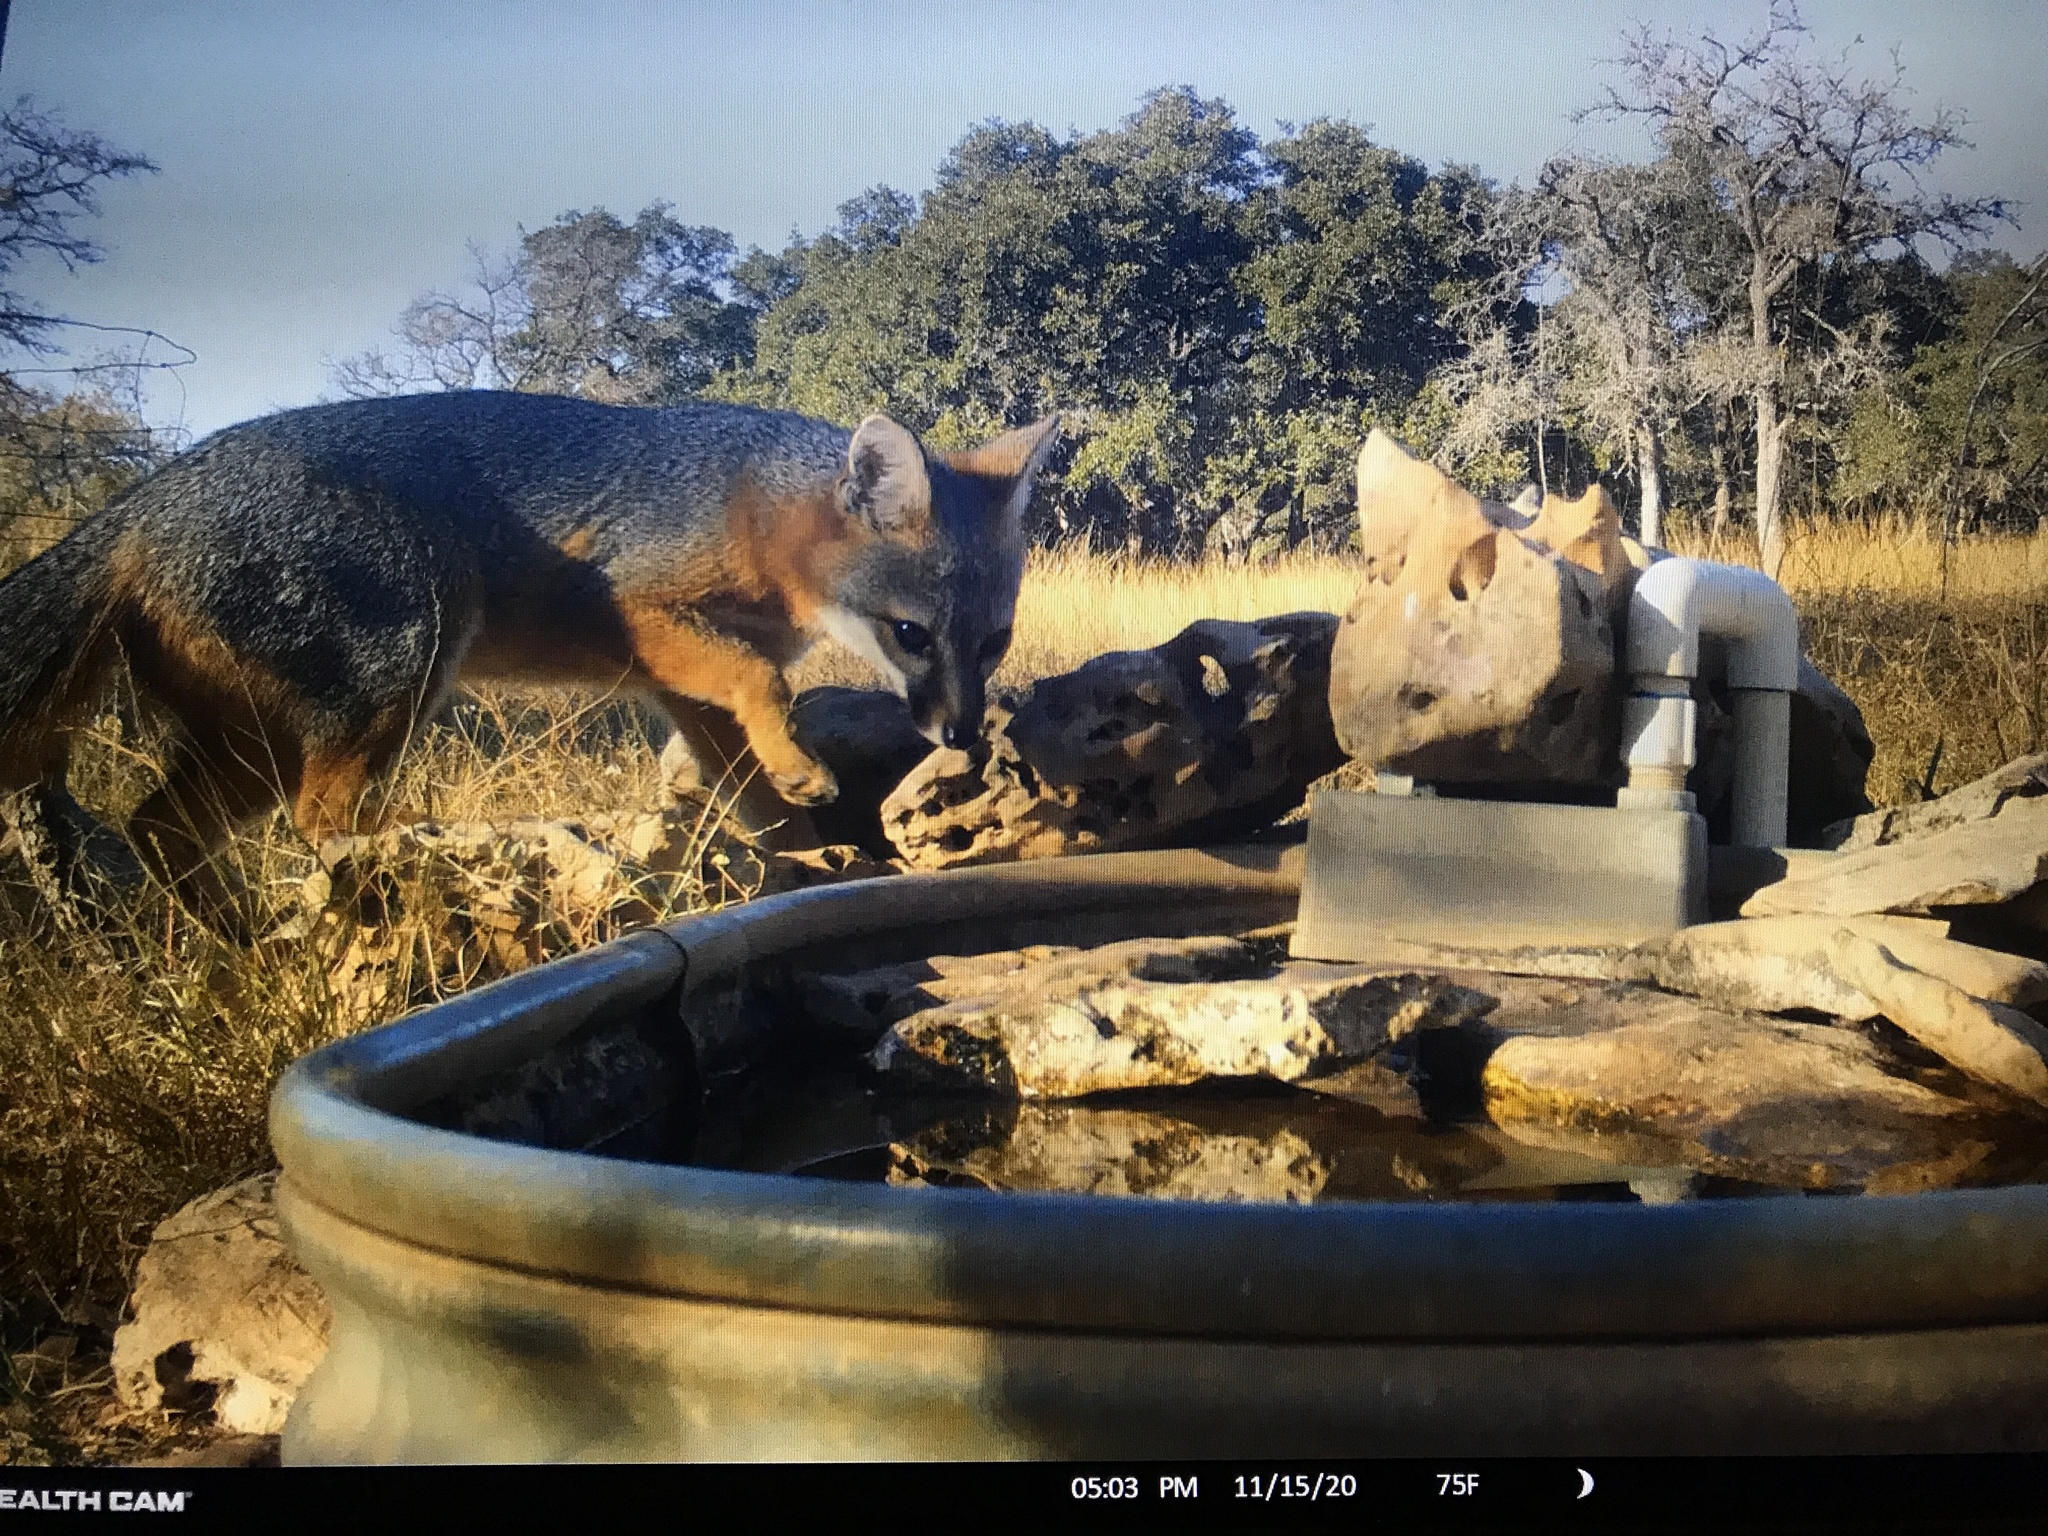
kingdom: Animalia
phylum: Chordata
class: Mammalia
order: Carnivora
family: Canidae
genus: Urocyon
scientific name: Urocyon cinereoargenteus
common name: Gray fox
